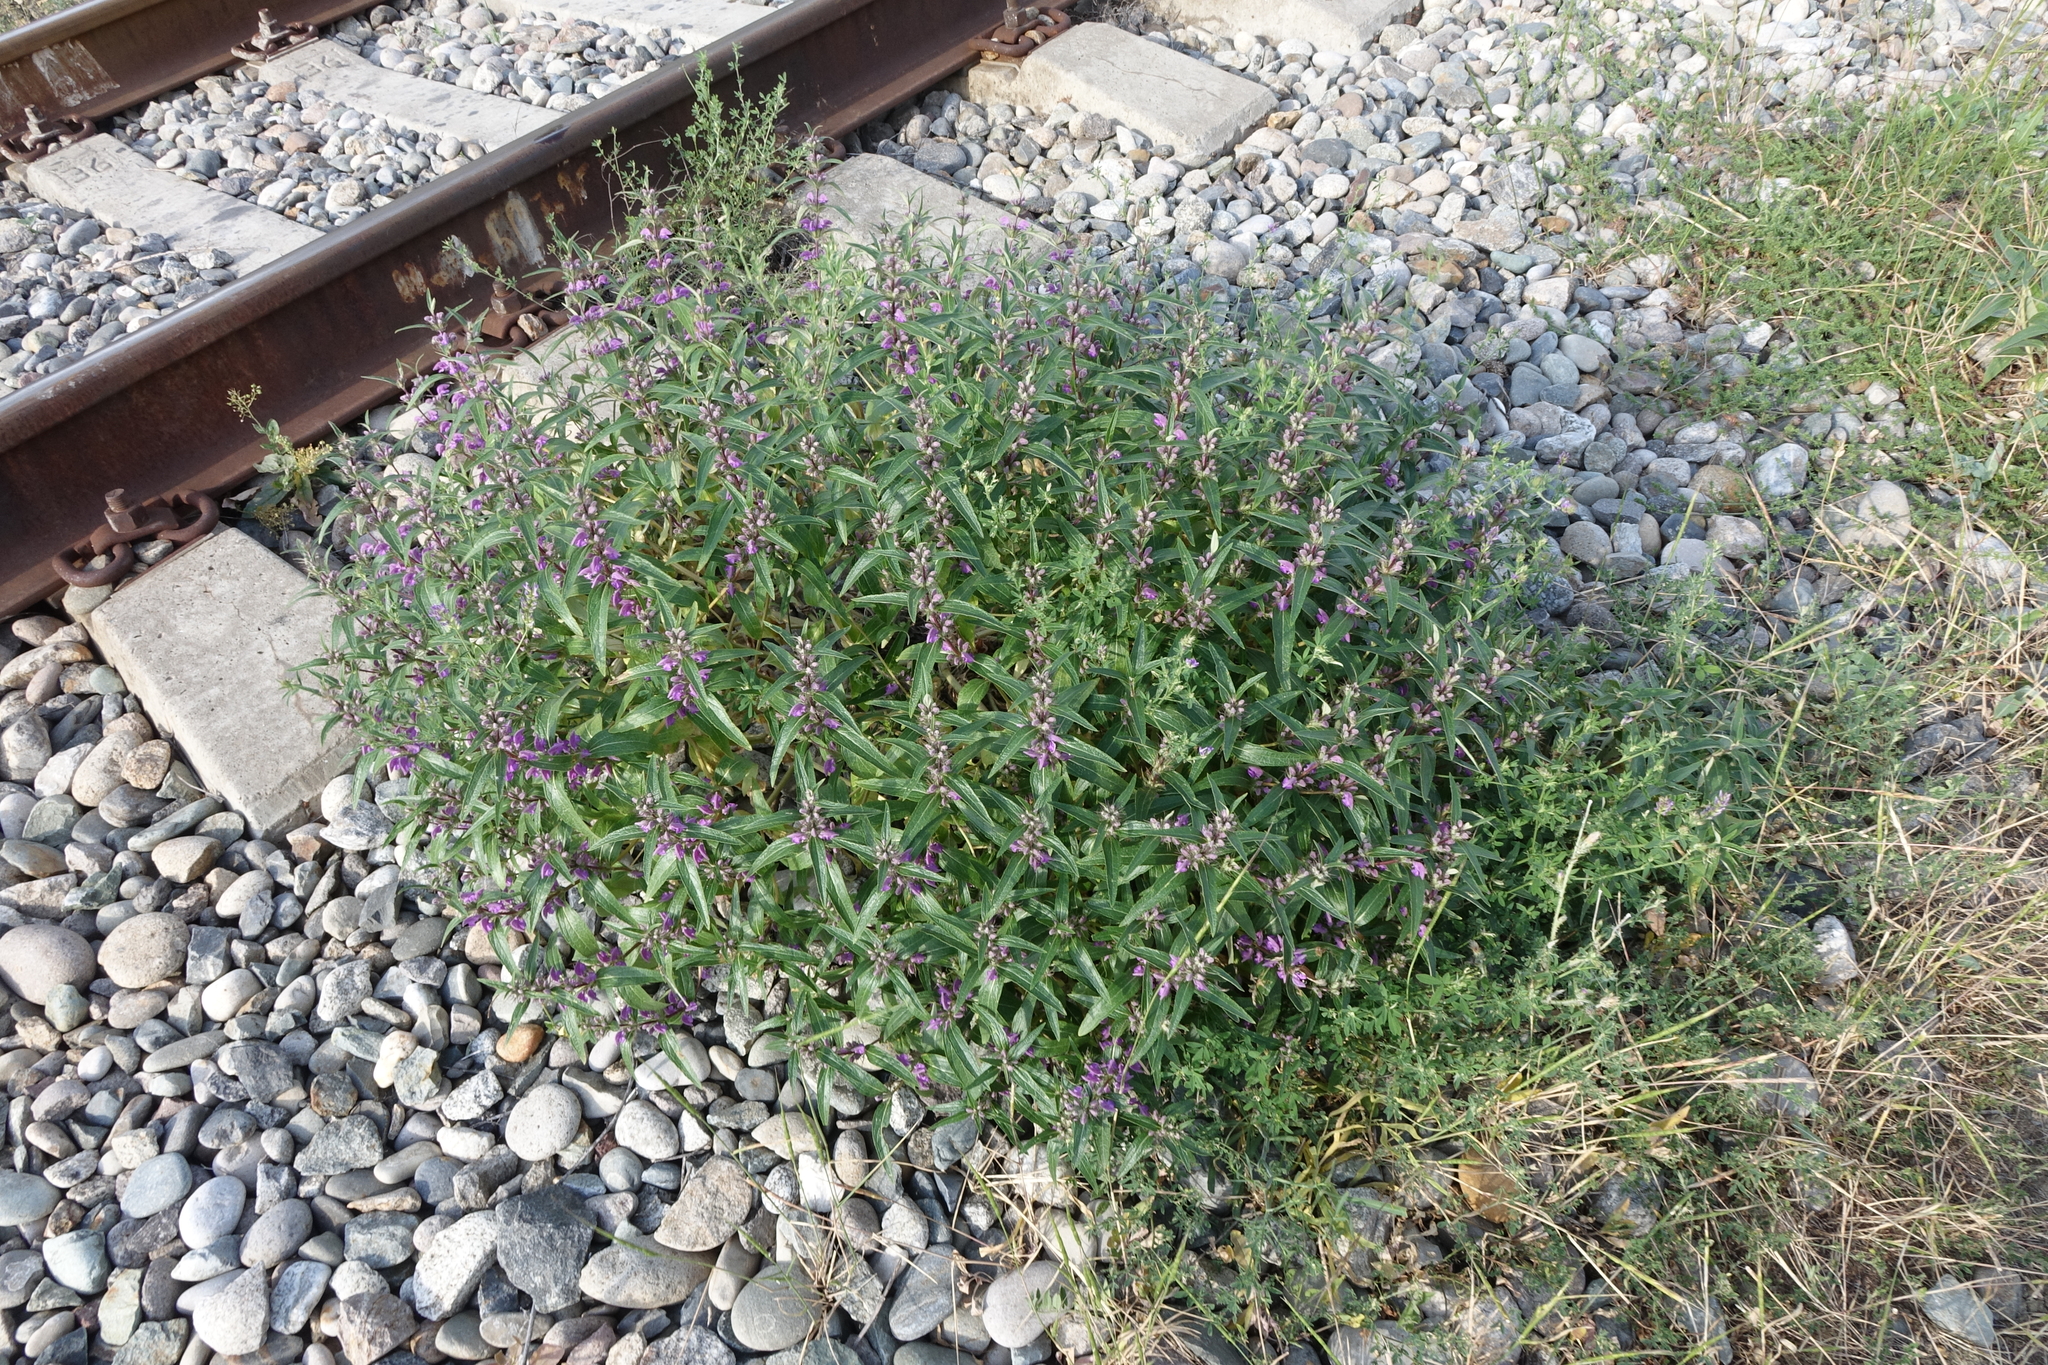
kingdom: Plantae
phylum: Tracheophyta
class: Magnoliopsida
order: Lamiales
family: Lamiaceae
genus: Phlomis
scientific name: Phlomis herba-venti
